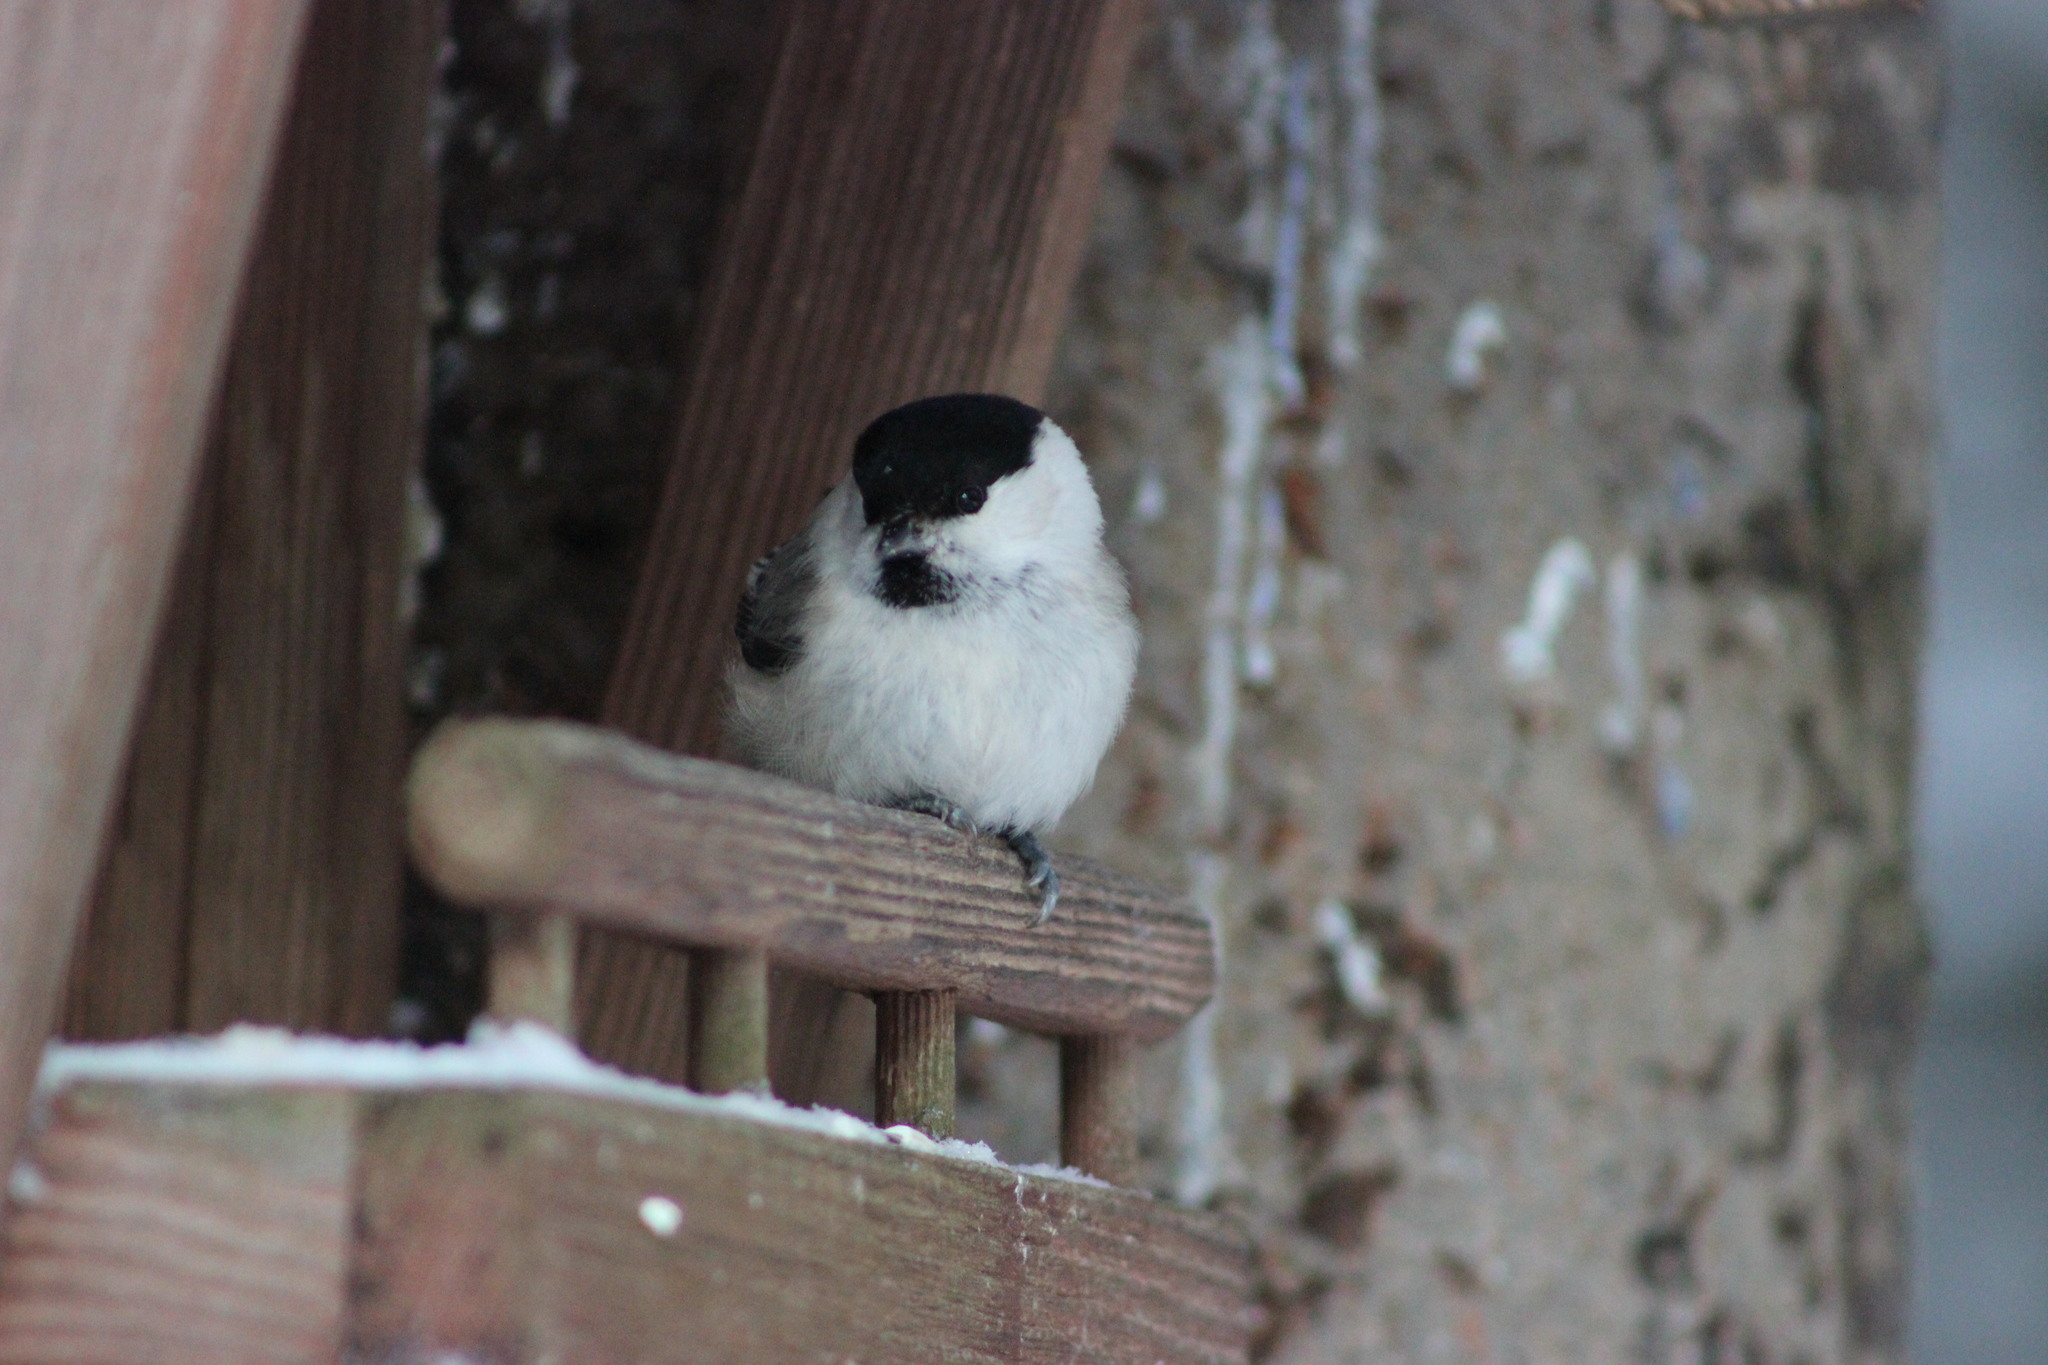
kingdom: Animalia
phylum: Chordata
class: Aves
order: Passeriformes
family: Paridae
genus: Poecile
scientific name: Poecile montanus
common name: Willow tit
